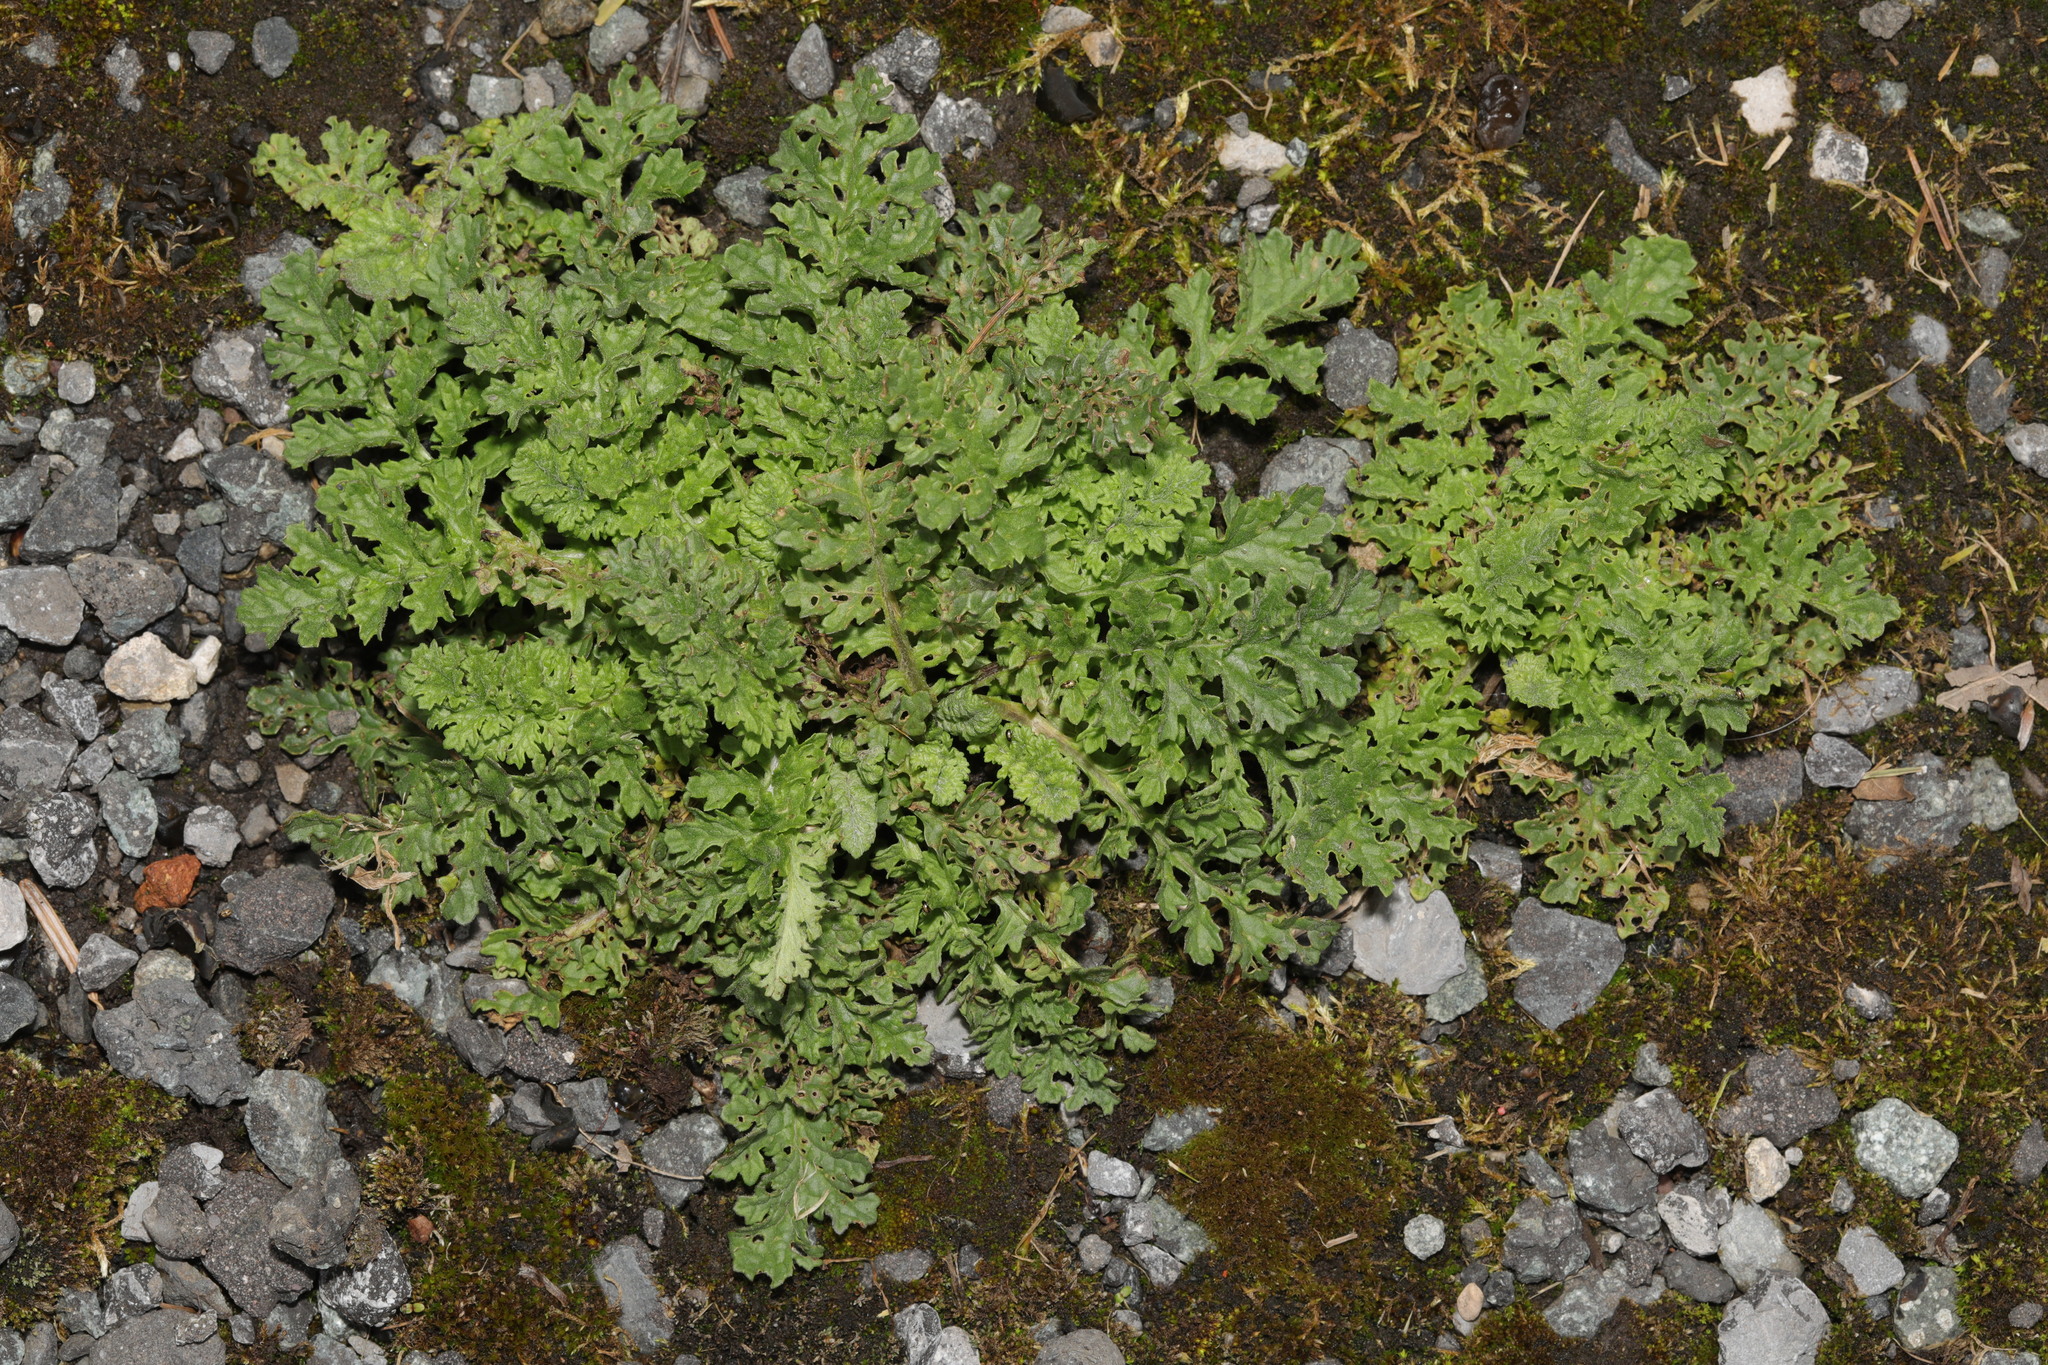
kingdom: Plantae
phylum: Tracheophyta
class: Magnoliopsida
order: Asterales
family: Asteraceae
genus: Jacobaea
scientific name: Jacobaea vulgaris
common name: Stinking willie
